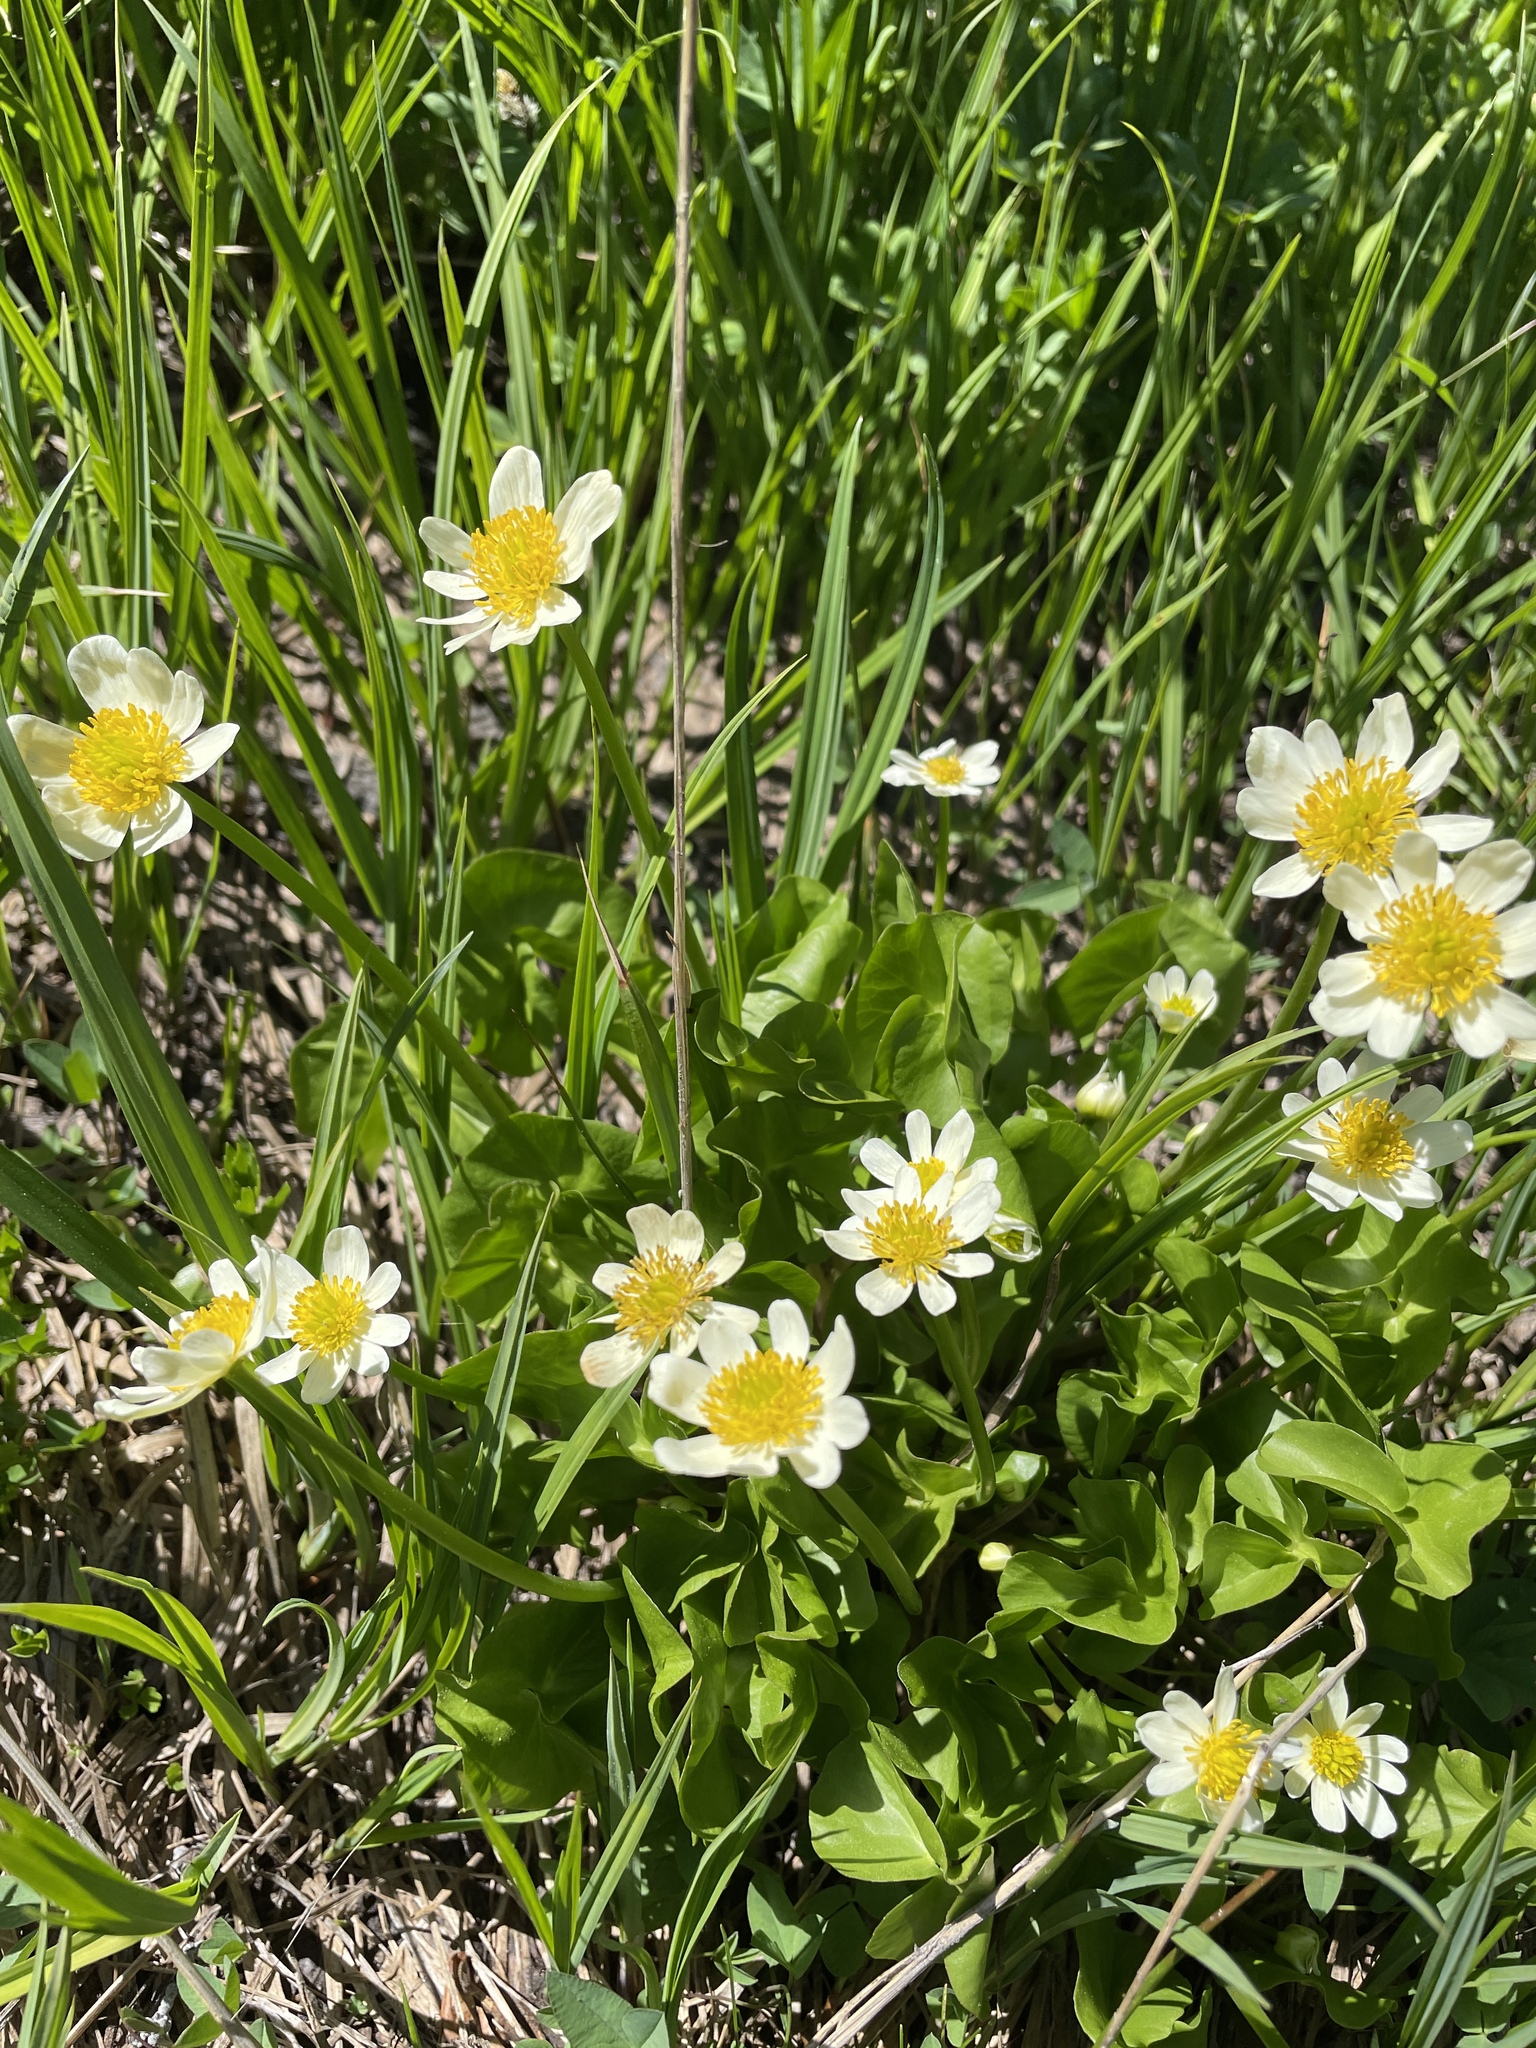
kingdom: Plantae
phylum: Tracheophyta
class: Magnoliopsida
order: Ranunculales
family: Ranunculaceae
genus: Caltha
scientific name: Caltha leptosepala
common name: Elkslip
